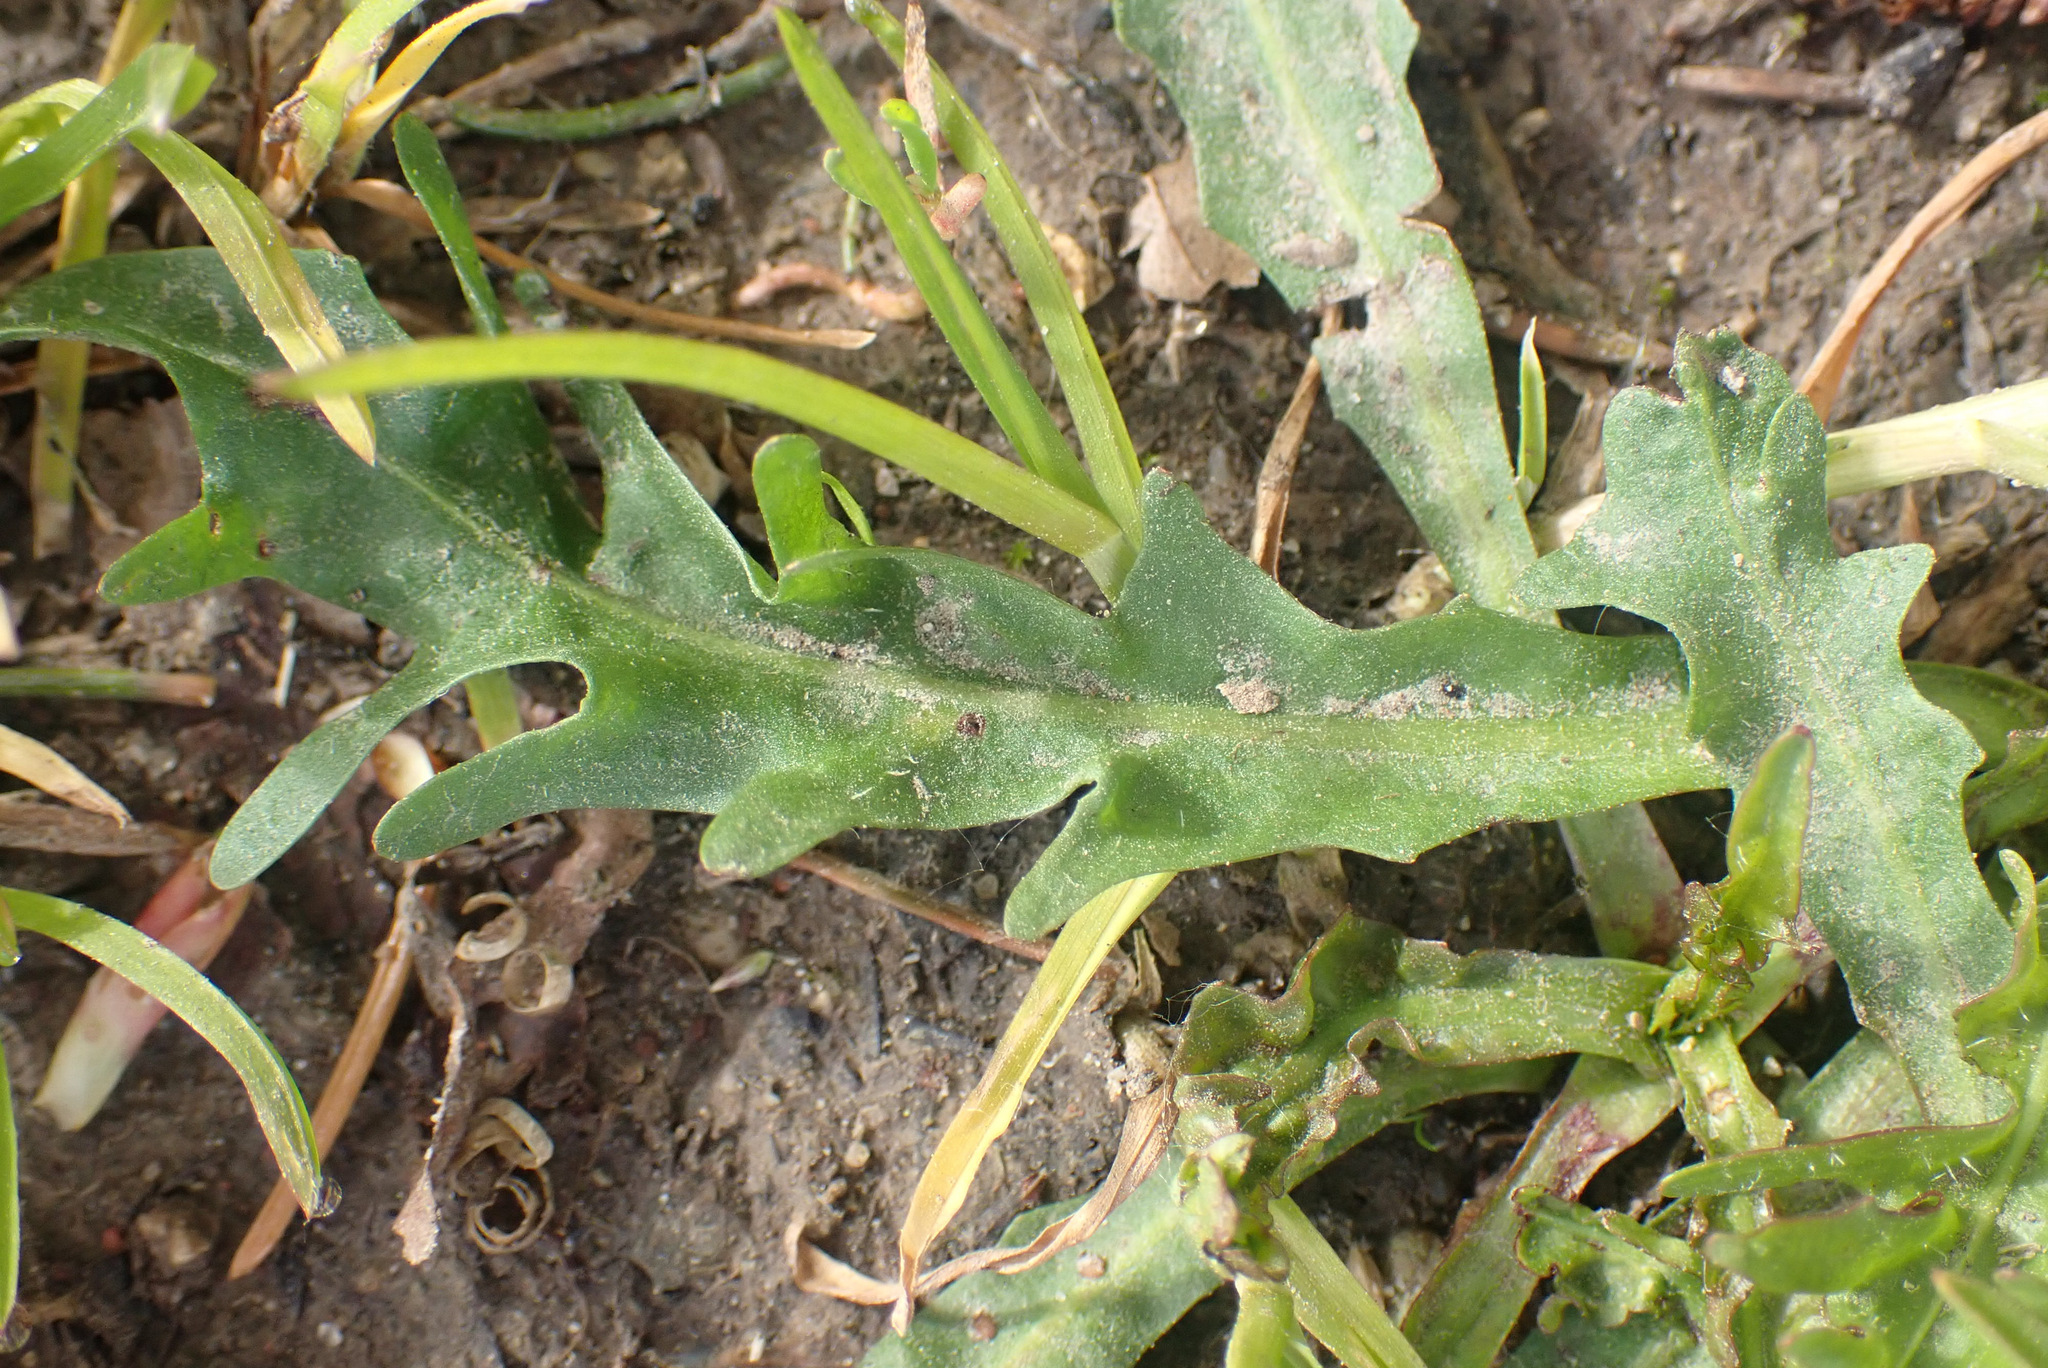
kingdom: Plantae
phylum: Tracheophyta
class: Magnoliopsida
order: Asterales
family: Asteraceae
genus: Scorzoneroides
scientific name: Scorzoneroides autumnalis
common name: Autumn hawkbit
